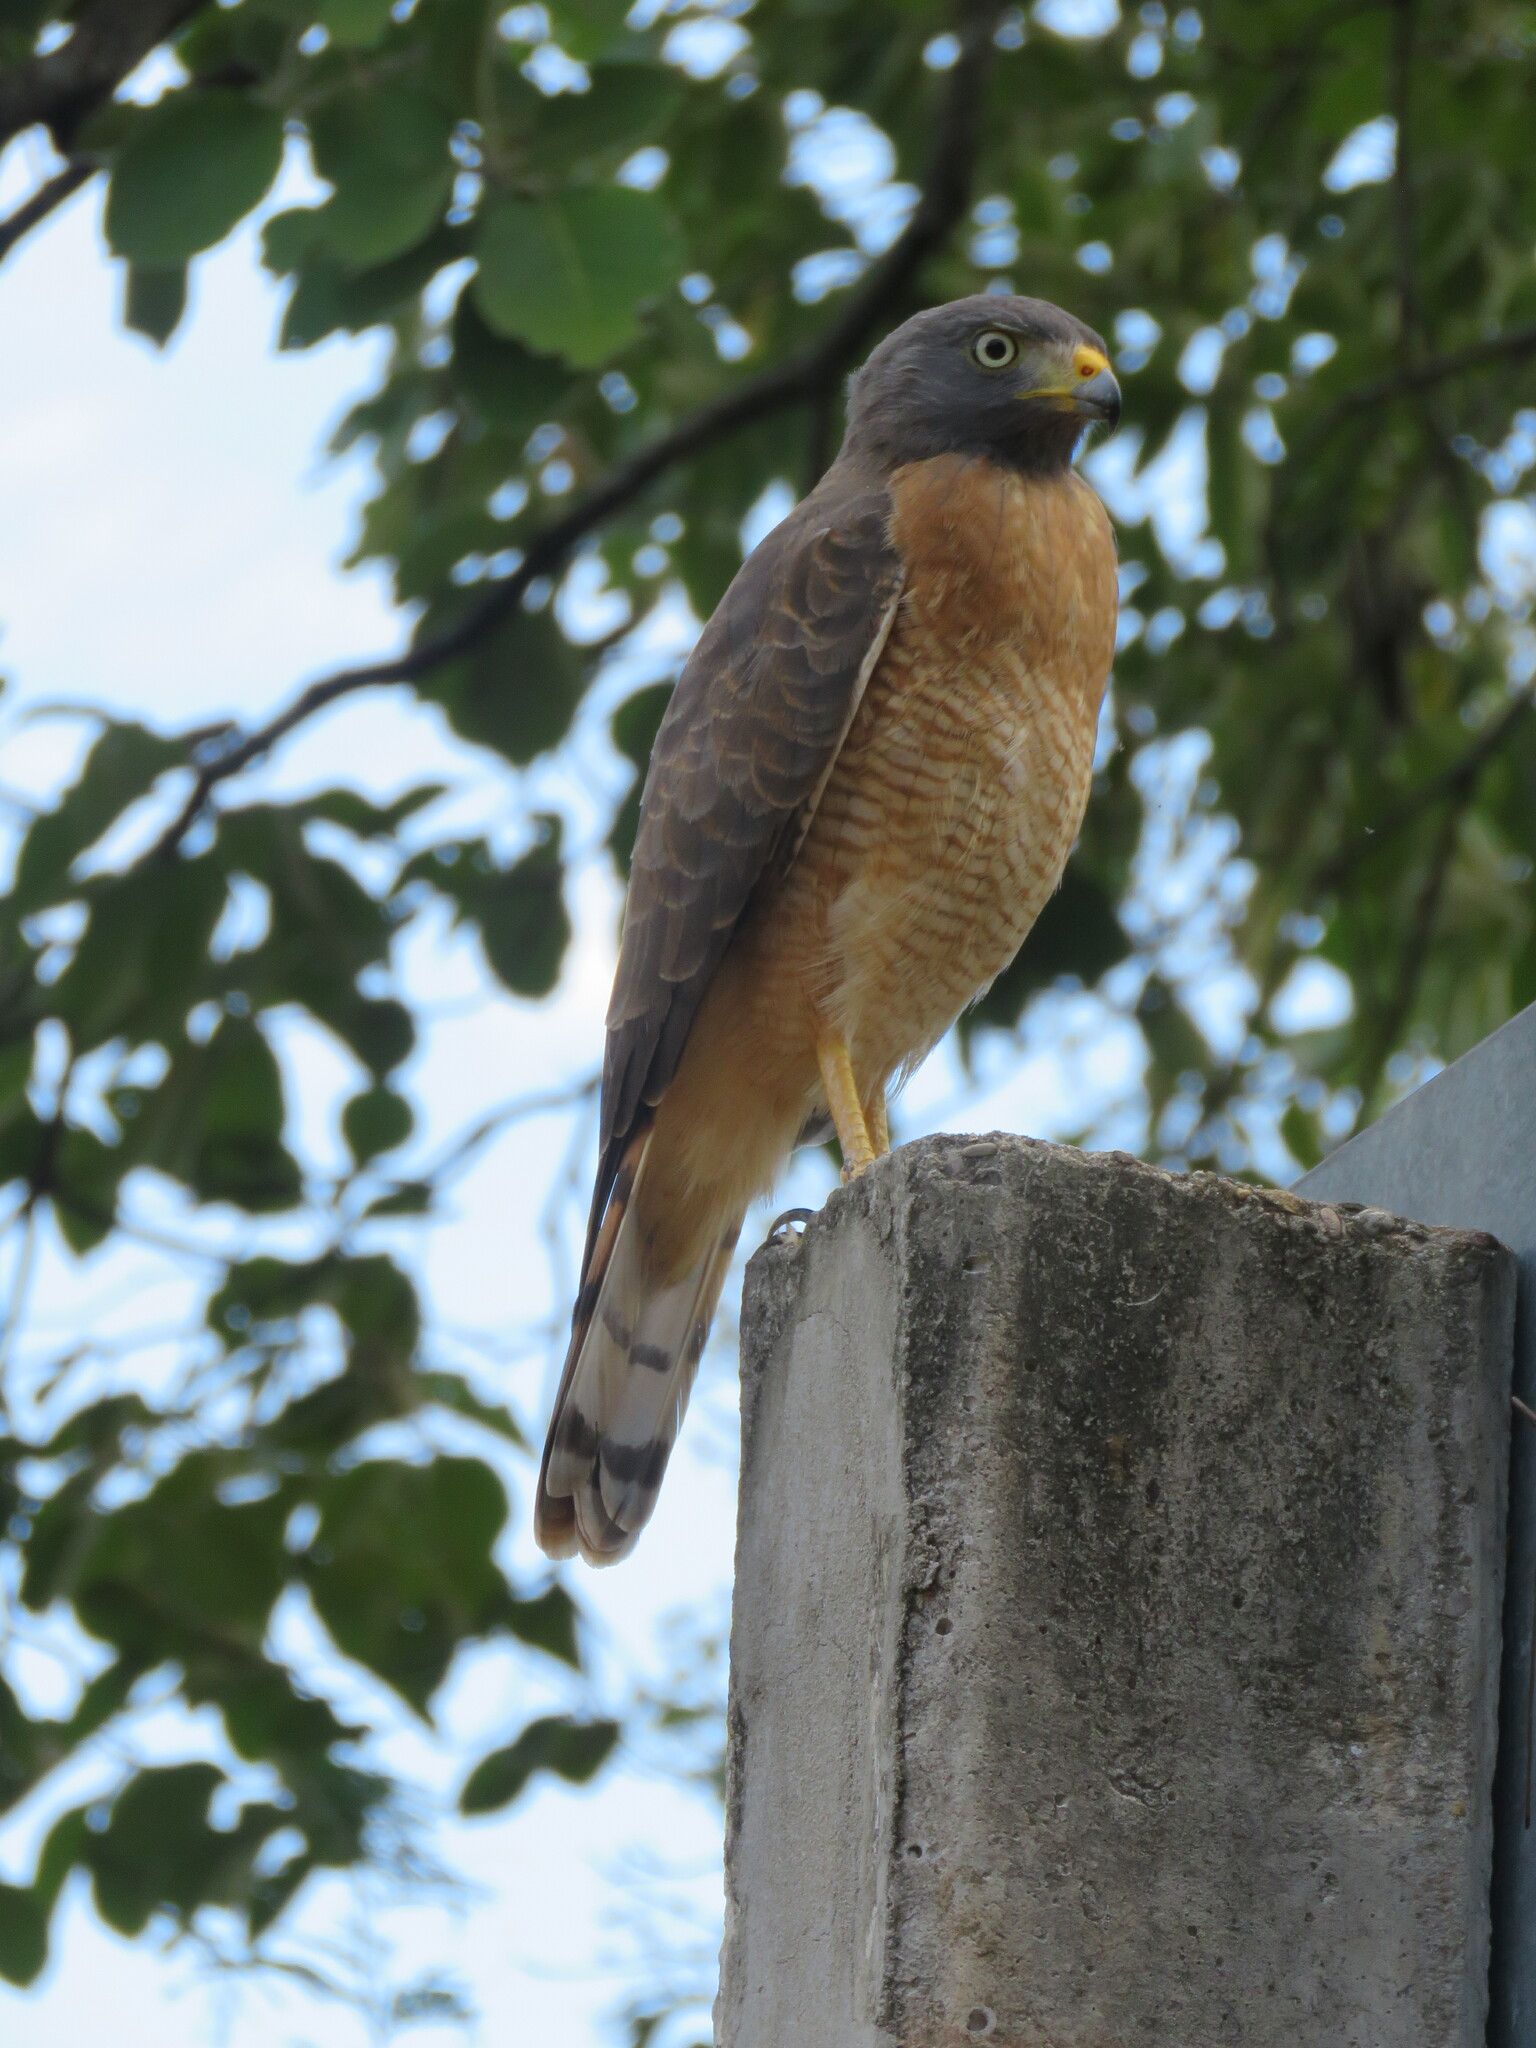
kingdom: Animalia
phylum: Chordata
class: Aves
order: Accipitriformes
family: Accipitridae
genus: Rupornis
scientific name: Rupornis magnirostris
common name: Roadside hawk
